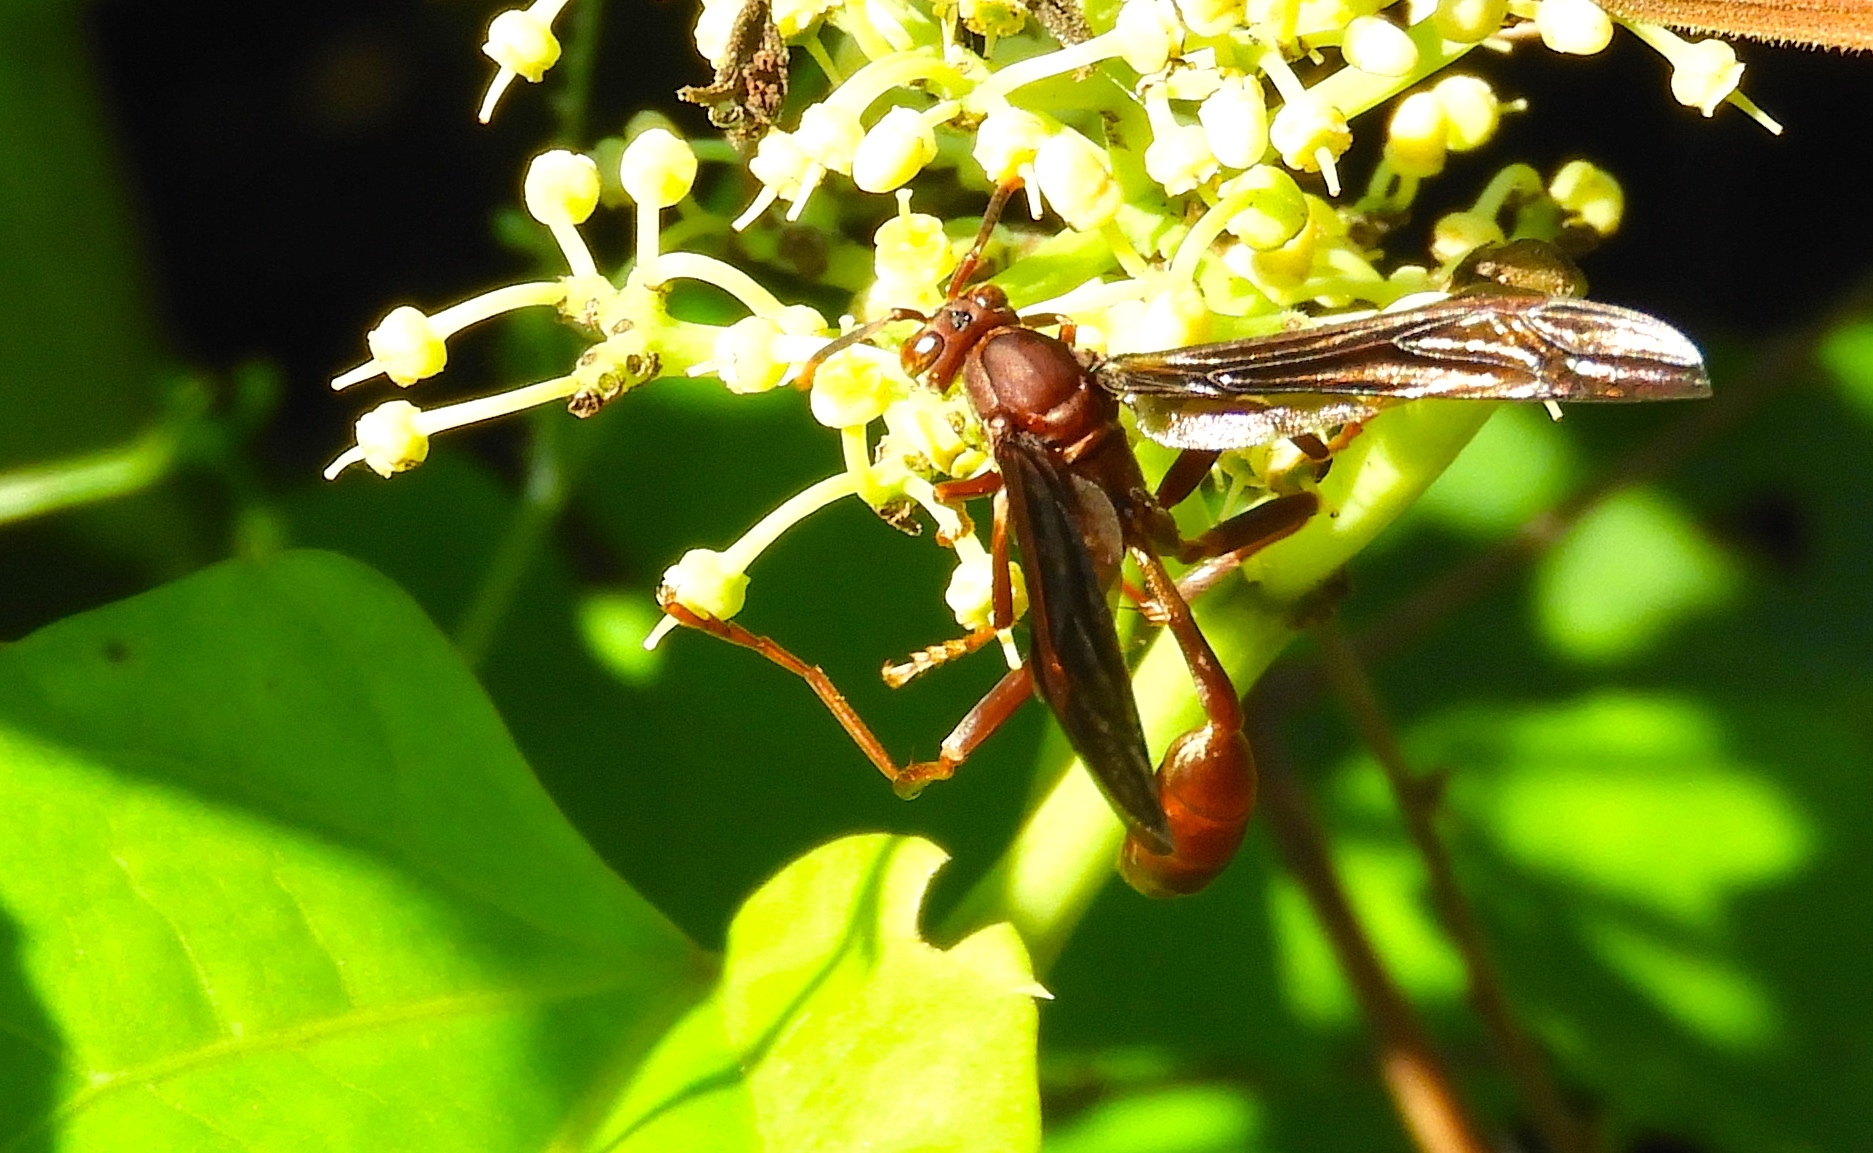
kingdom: Animalia
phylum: Arthropoda
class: Insecta
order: Hymenoptera
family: Vespidae
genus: Mischocyttarus
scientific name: Mischocyttarus melanarius
